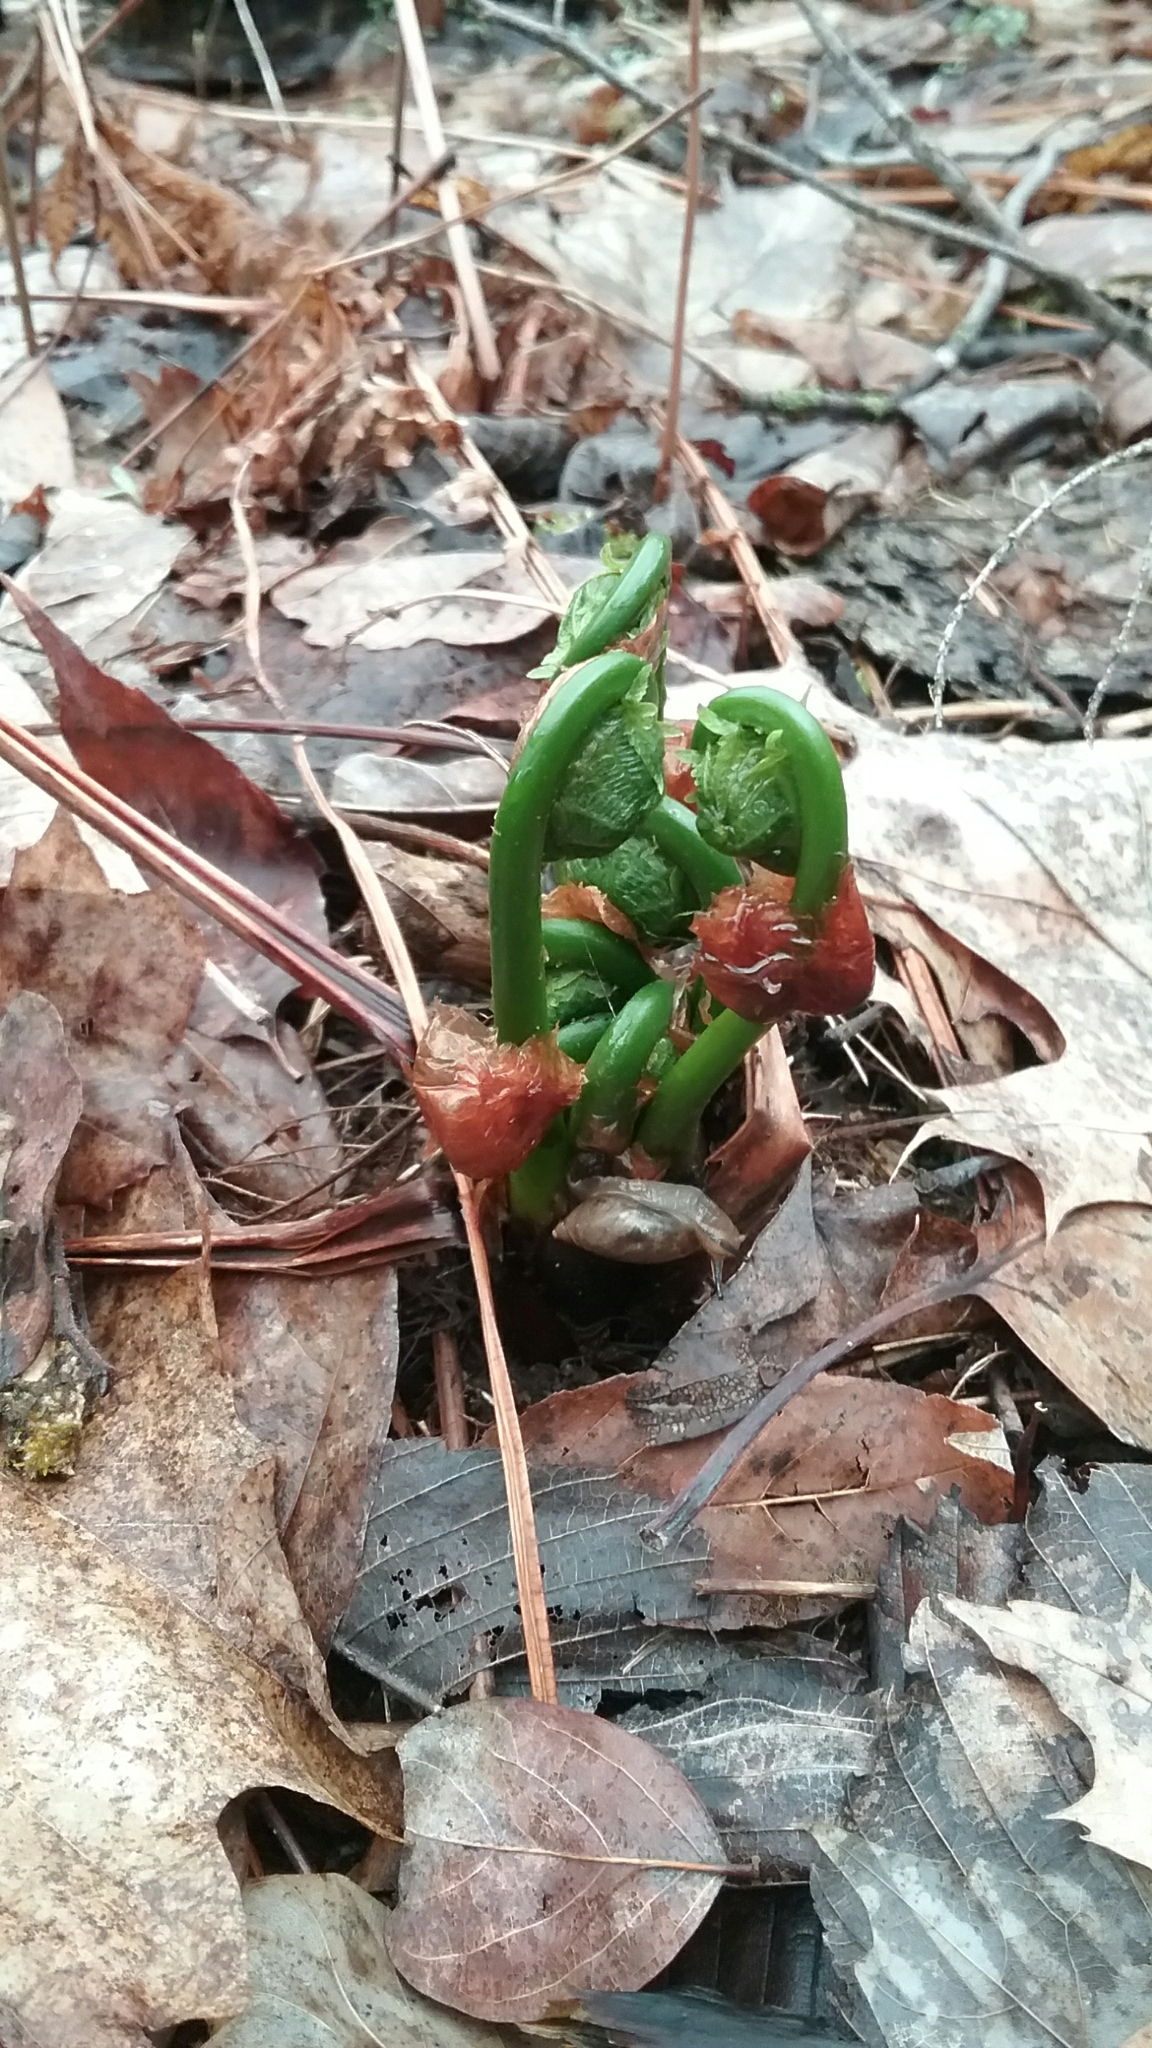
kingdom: Plantae
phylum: Tracheophyta
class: Polypodiopsida
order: Polypodiales
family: Onocleaceae
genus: Matteuccia
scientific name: Matteuccia struthiopteris
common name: Ostrich fern
